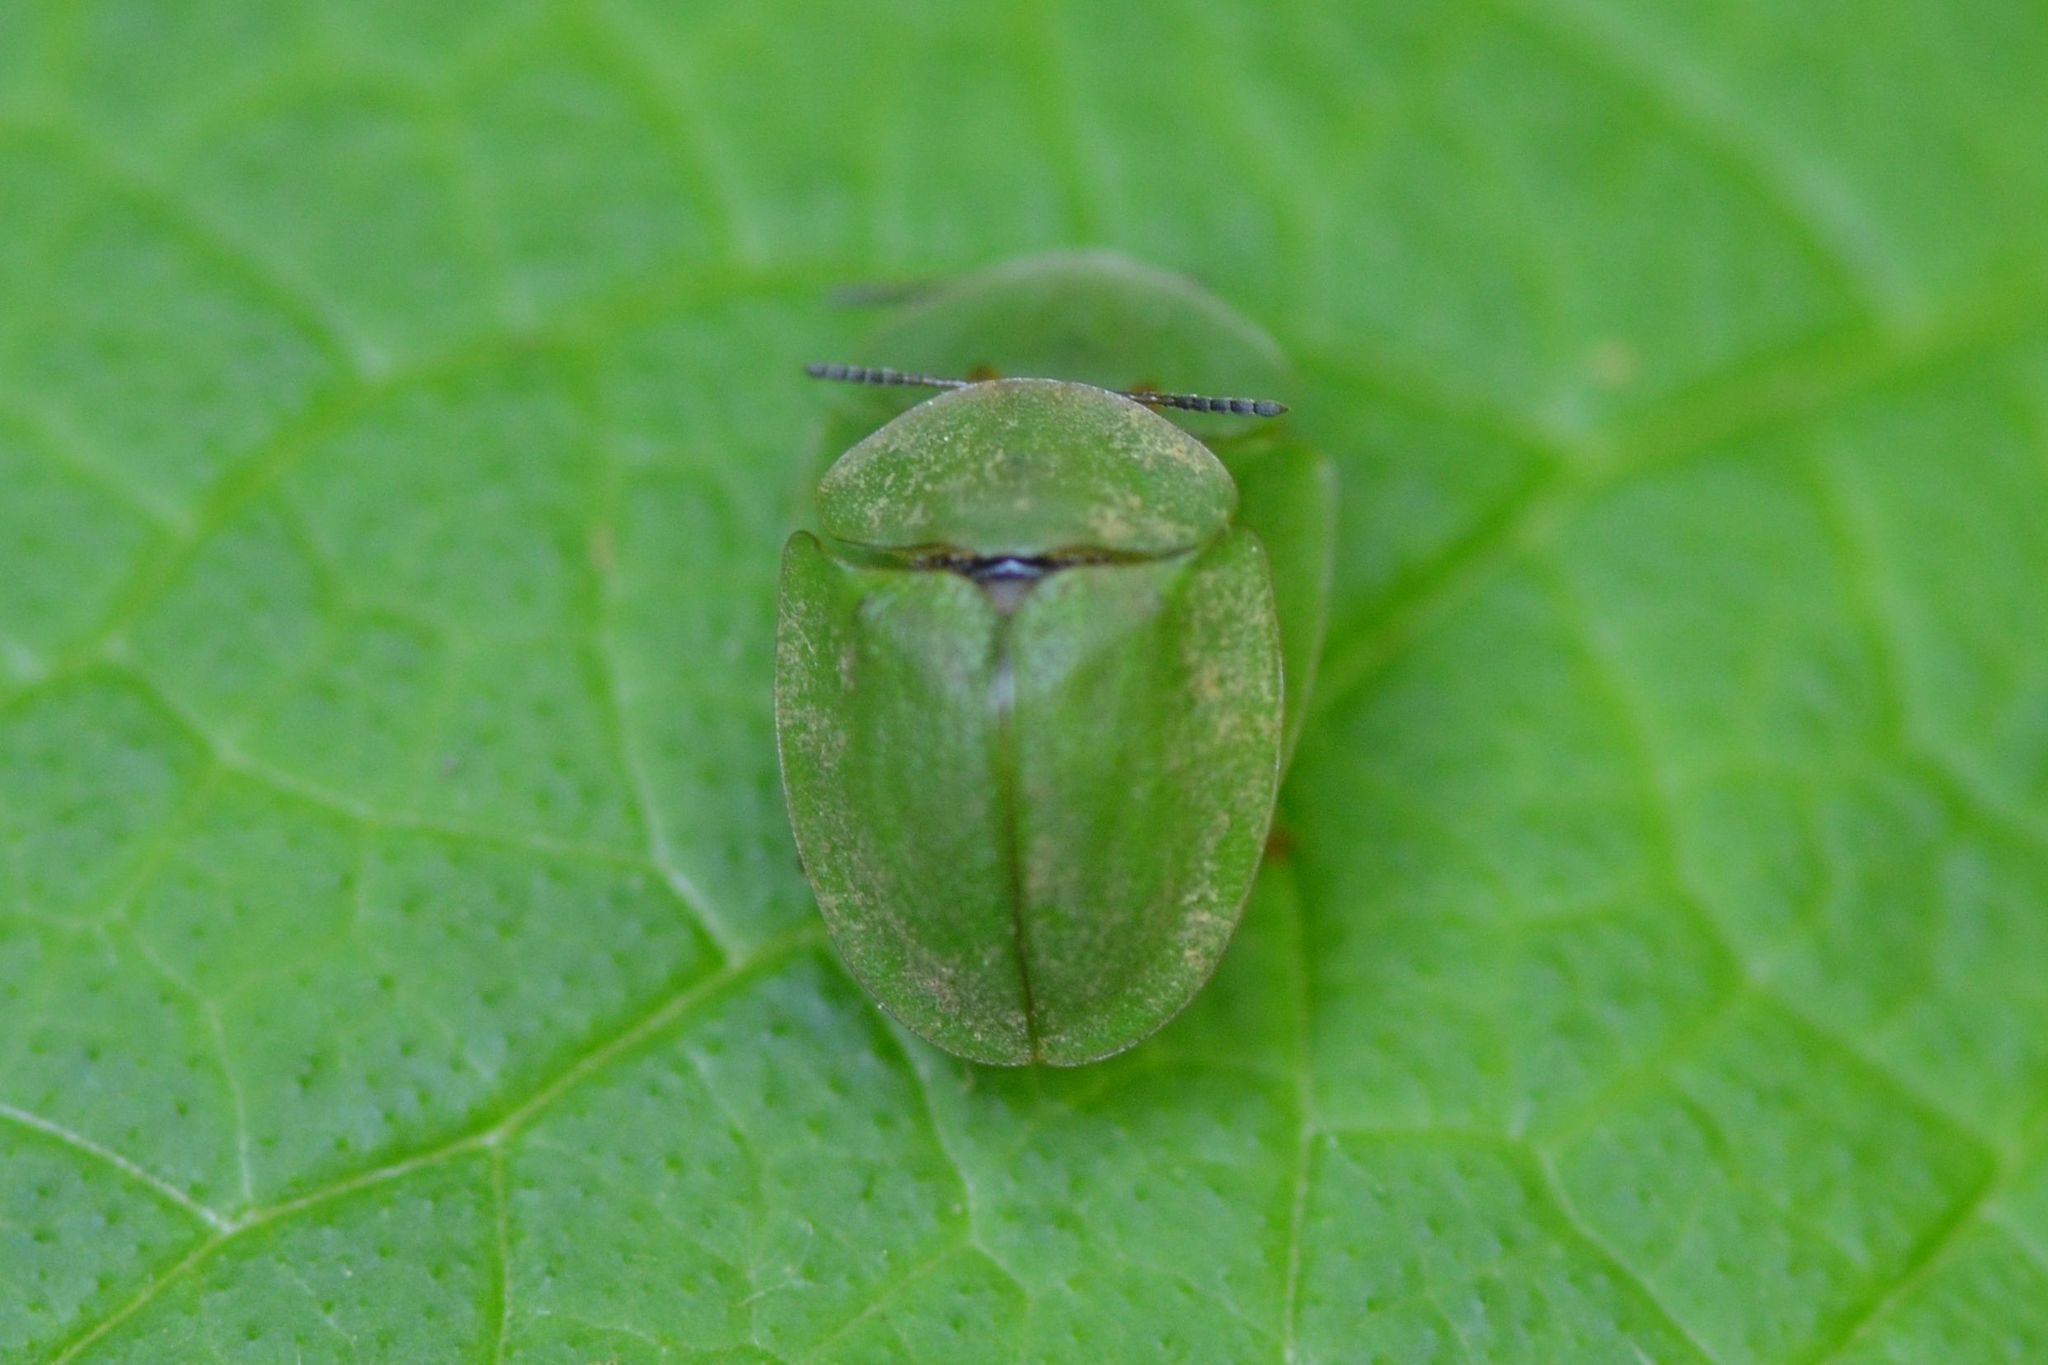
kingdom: Animalia
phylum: Arthropoda
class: Insecta
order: Coleoptera
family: Chrysomelidae
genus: Cassida
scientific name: Cassida viridis
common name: Green tortoise beetle
